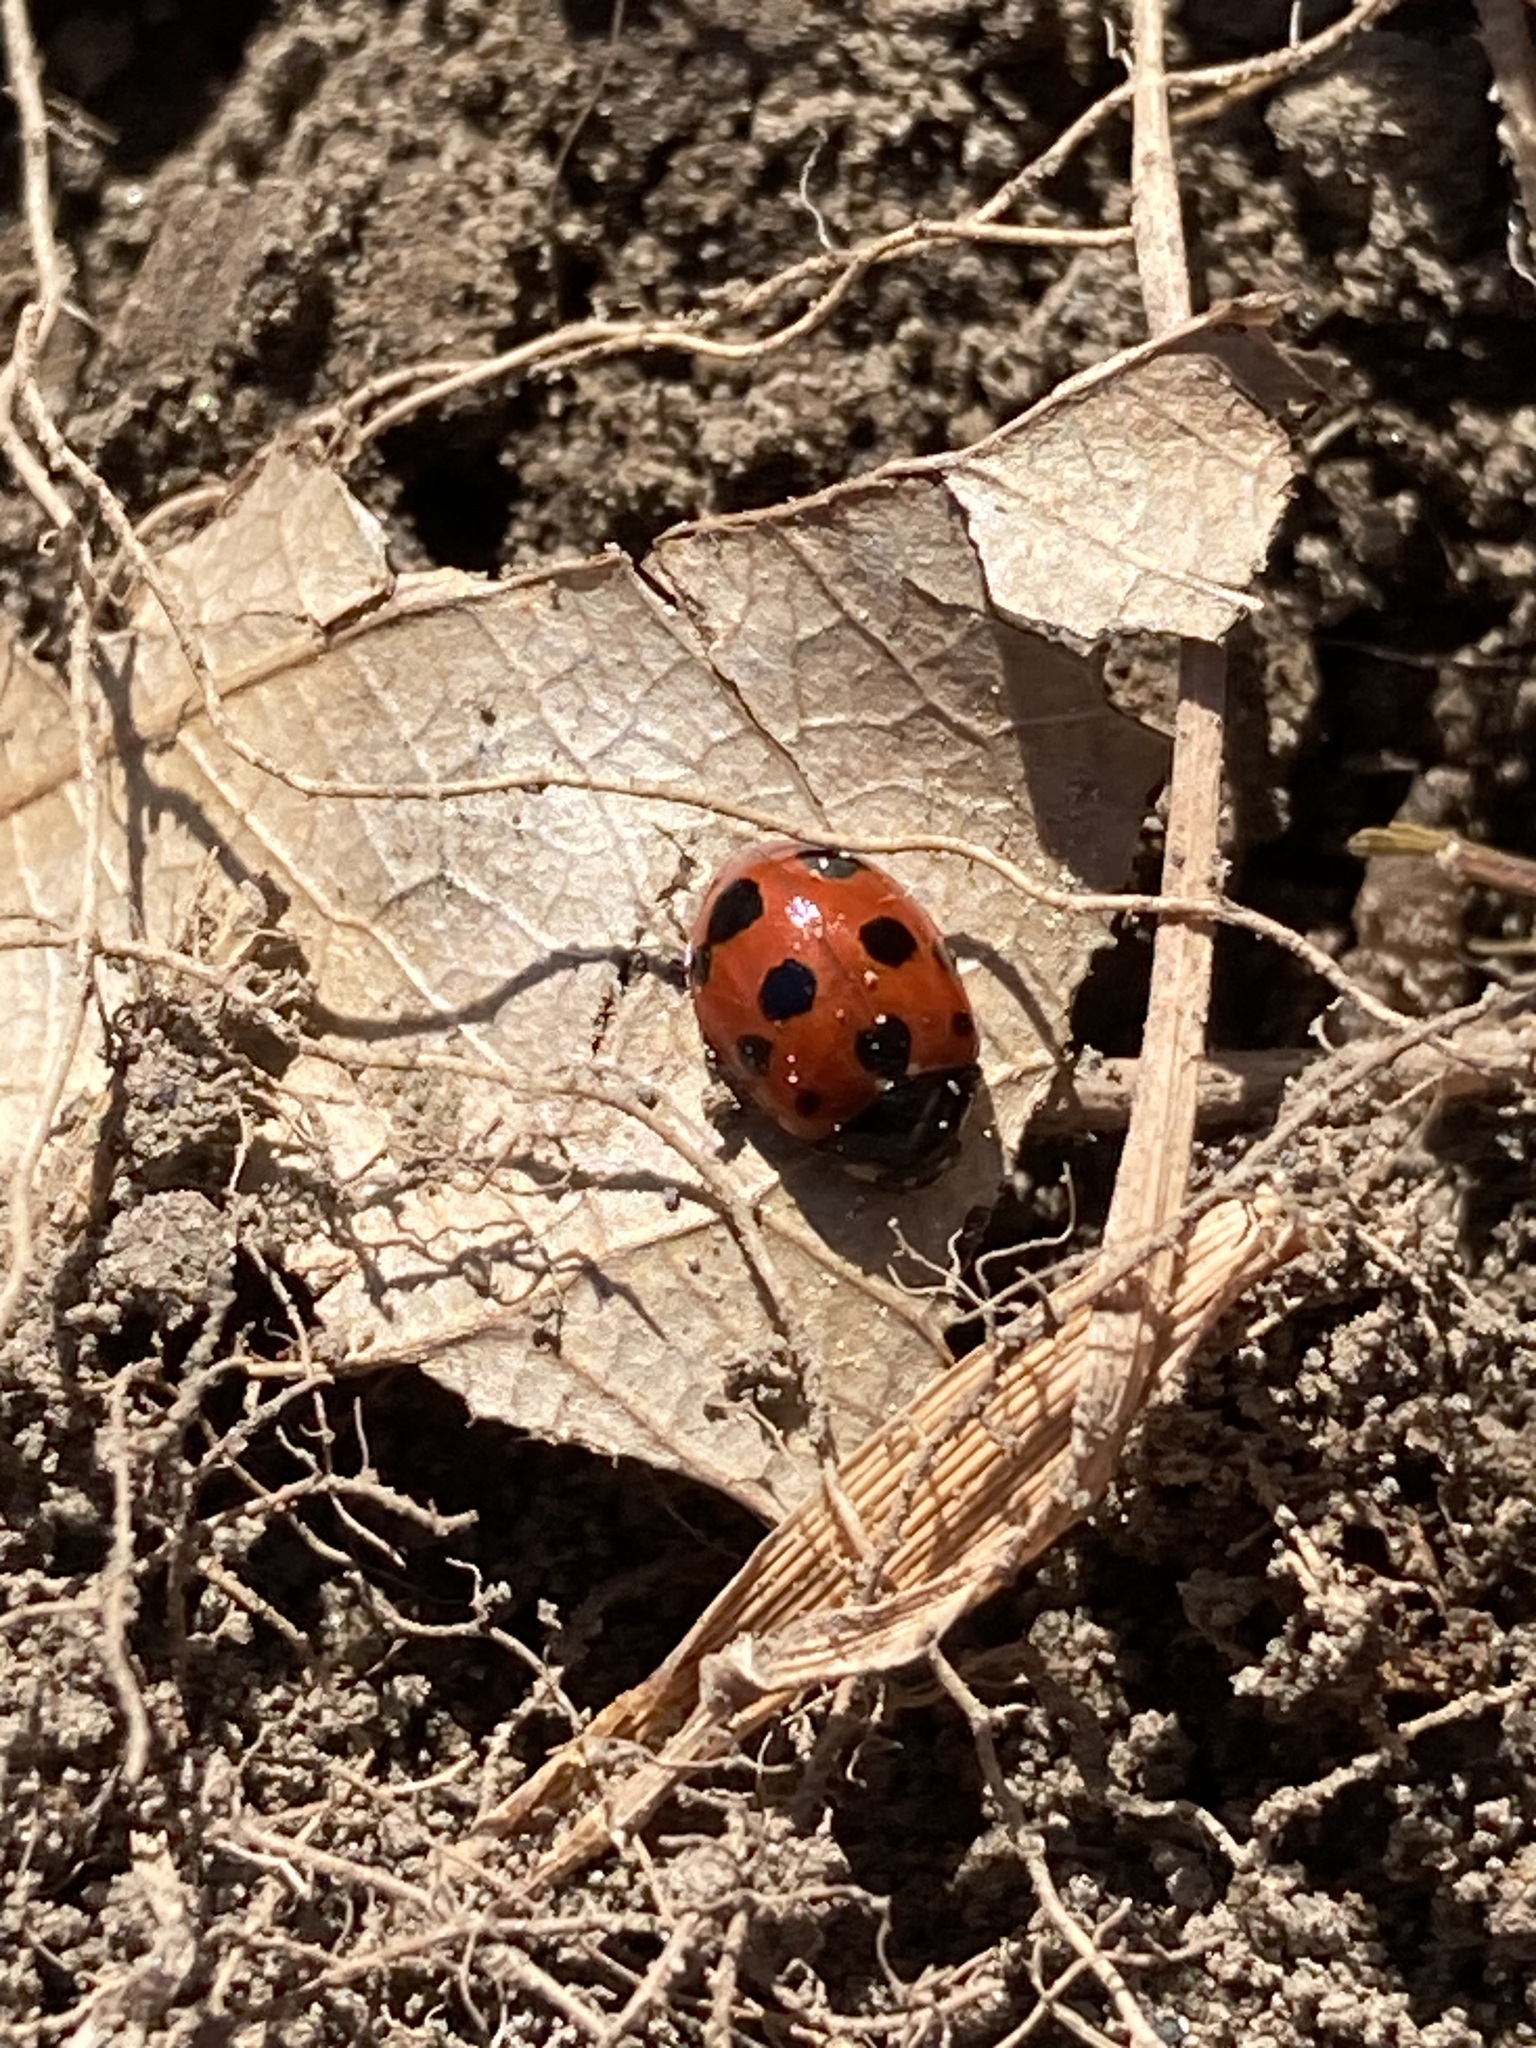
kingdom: Animalia
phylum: Arthropoda
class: Insecta
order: Coleoptera
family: Coccinellidae
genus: Coccinella
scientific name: Coccinella undecimpunctata
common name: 11-spot ladybird
